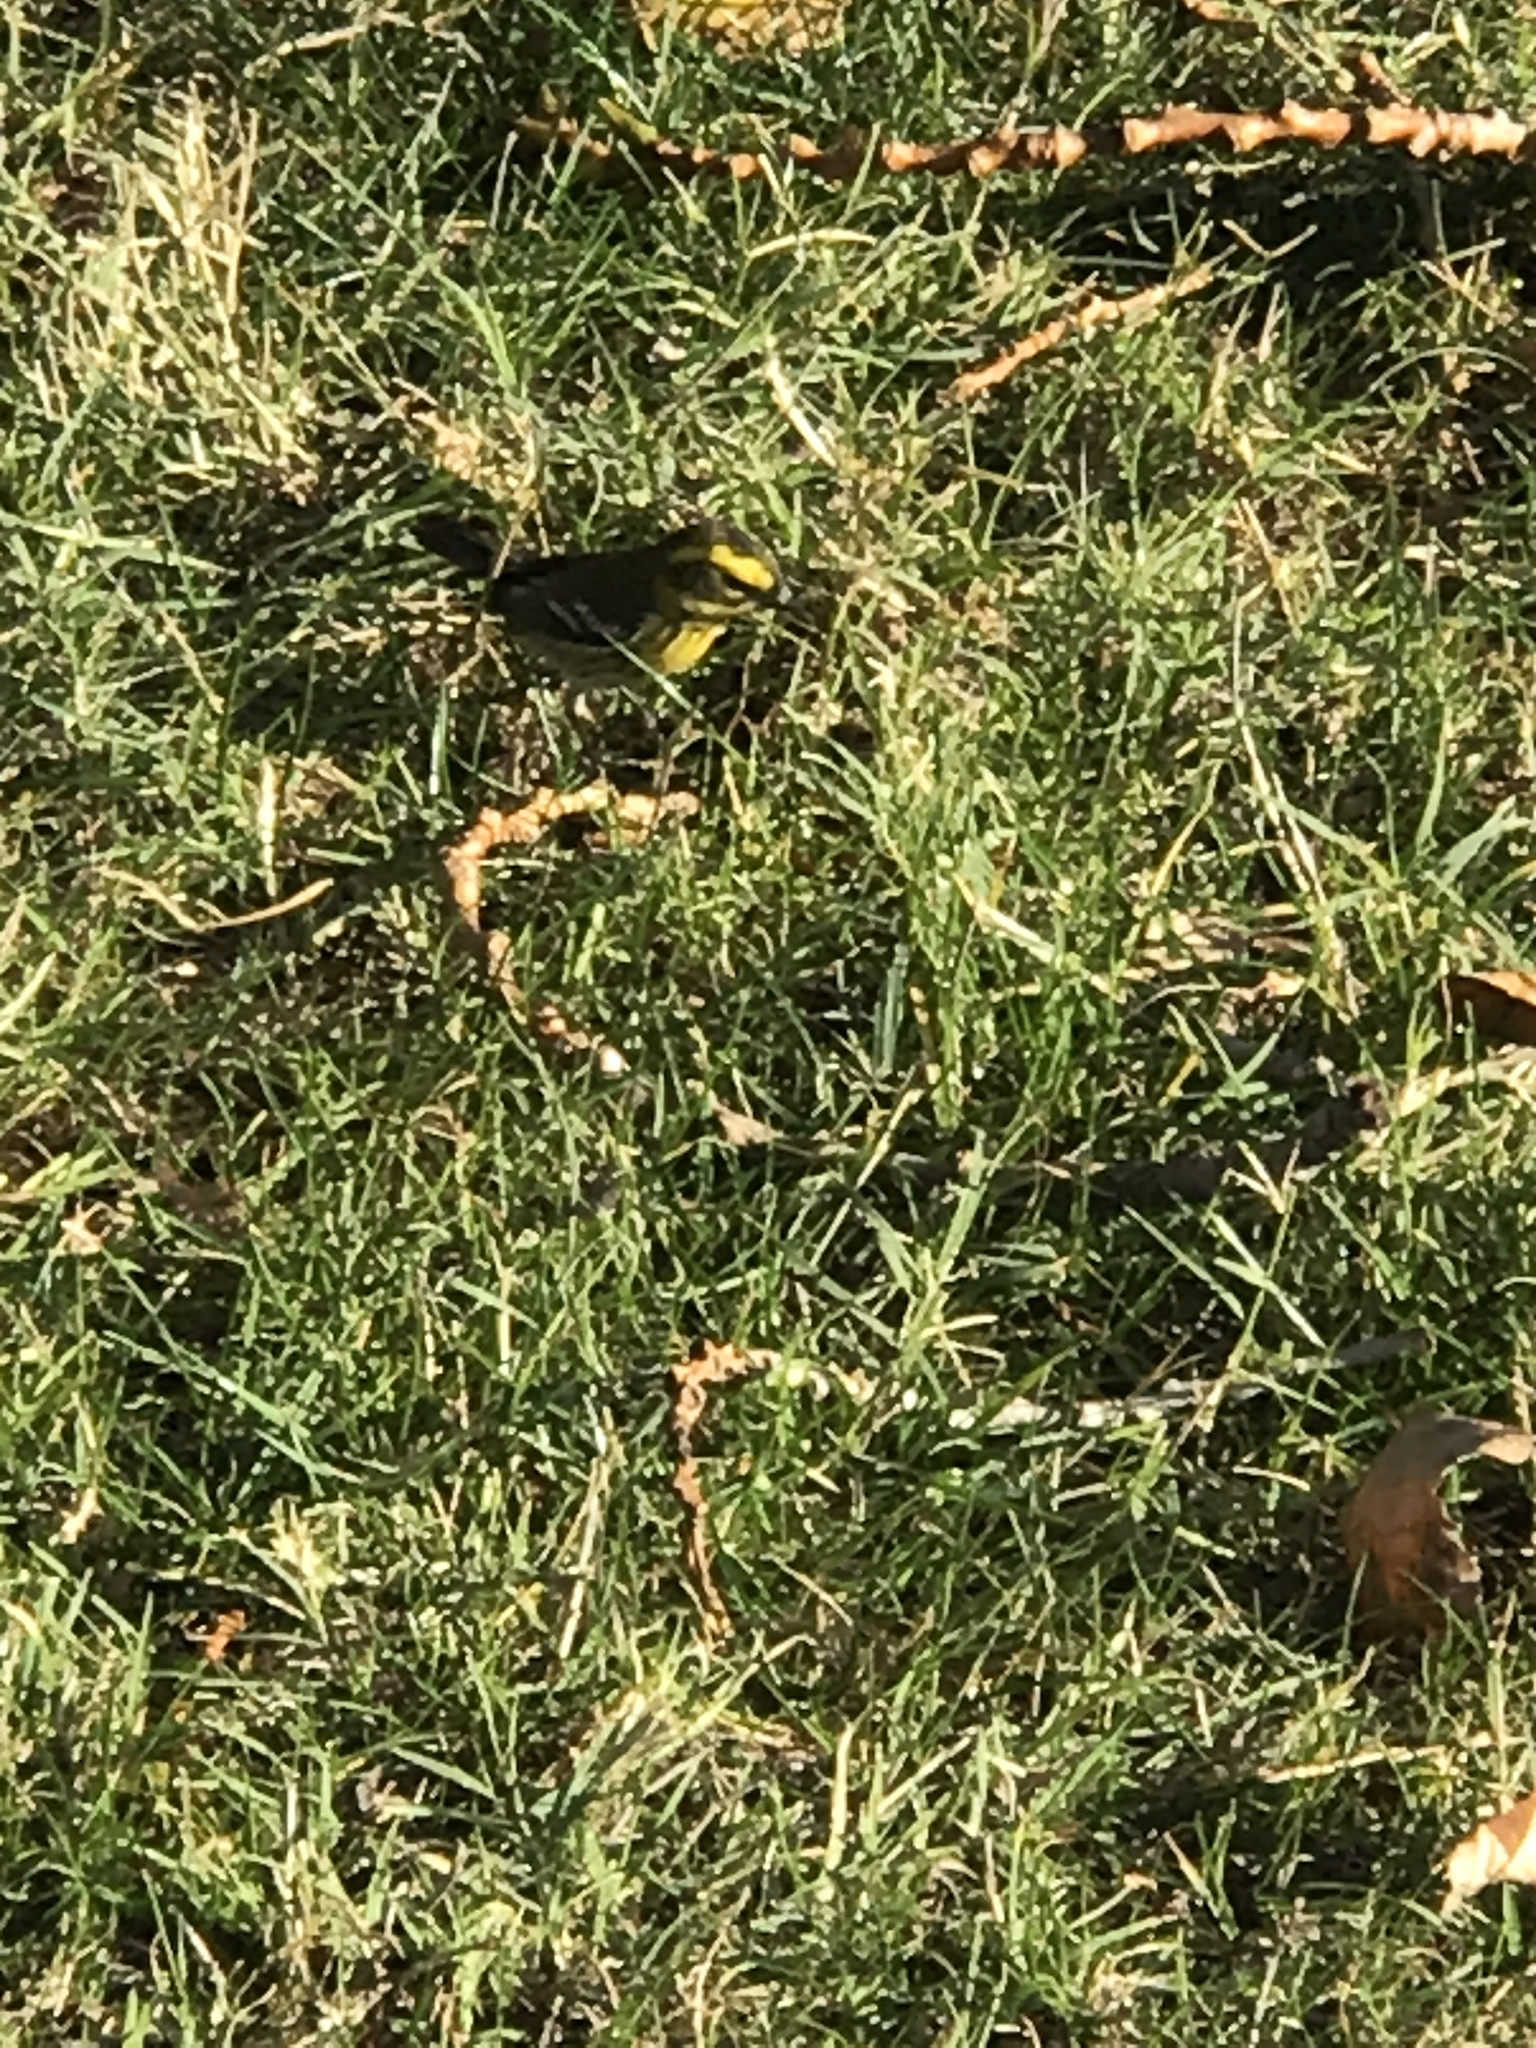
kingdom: Animalia
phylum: Chordata
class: Aves
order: Passeriformes
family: Parulidae
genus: Setophaga
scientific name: Setophaga townsendi
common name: Townsend's warbler
